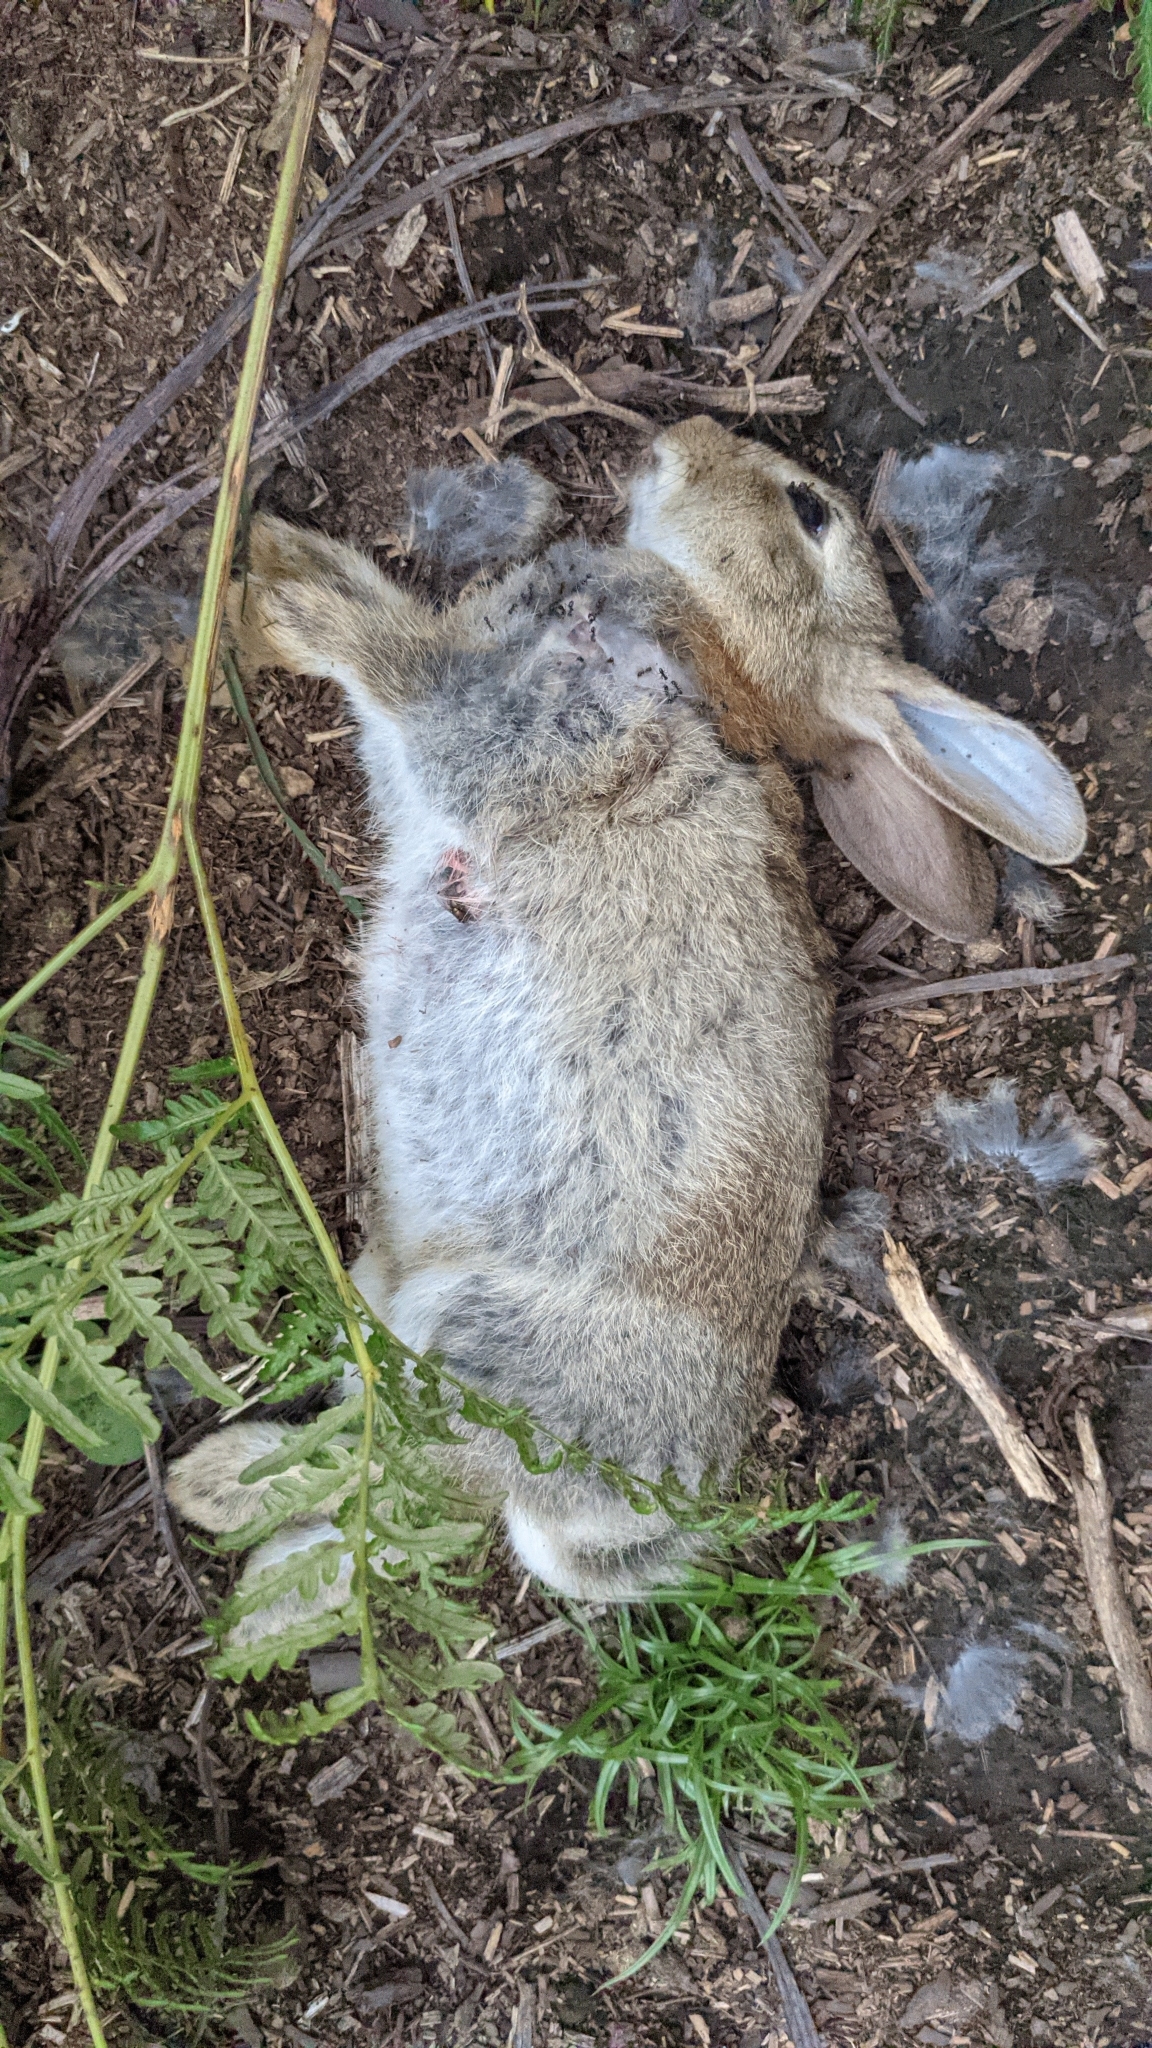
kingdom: Animalia
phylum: Chordata
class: Mammalia
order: Lagomorpha
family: Leporidae
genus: Oryctolagus
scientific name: Oryctolagus cuniculus
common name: European rabbit
